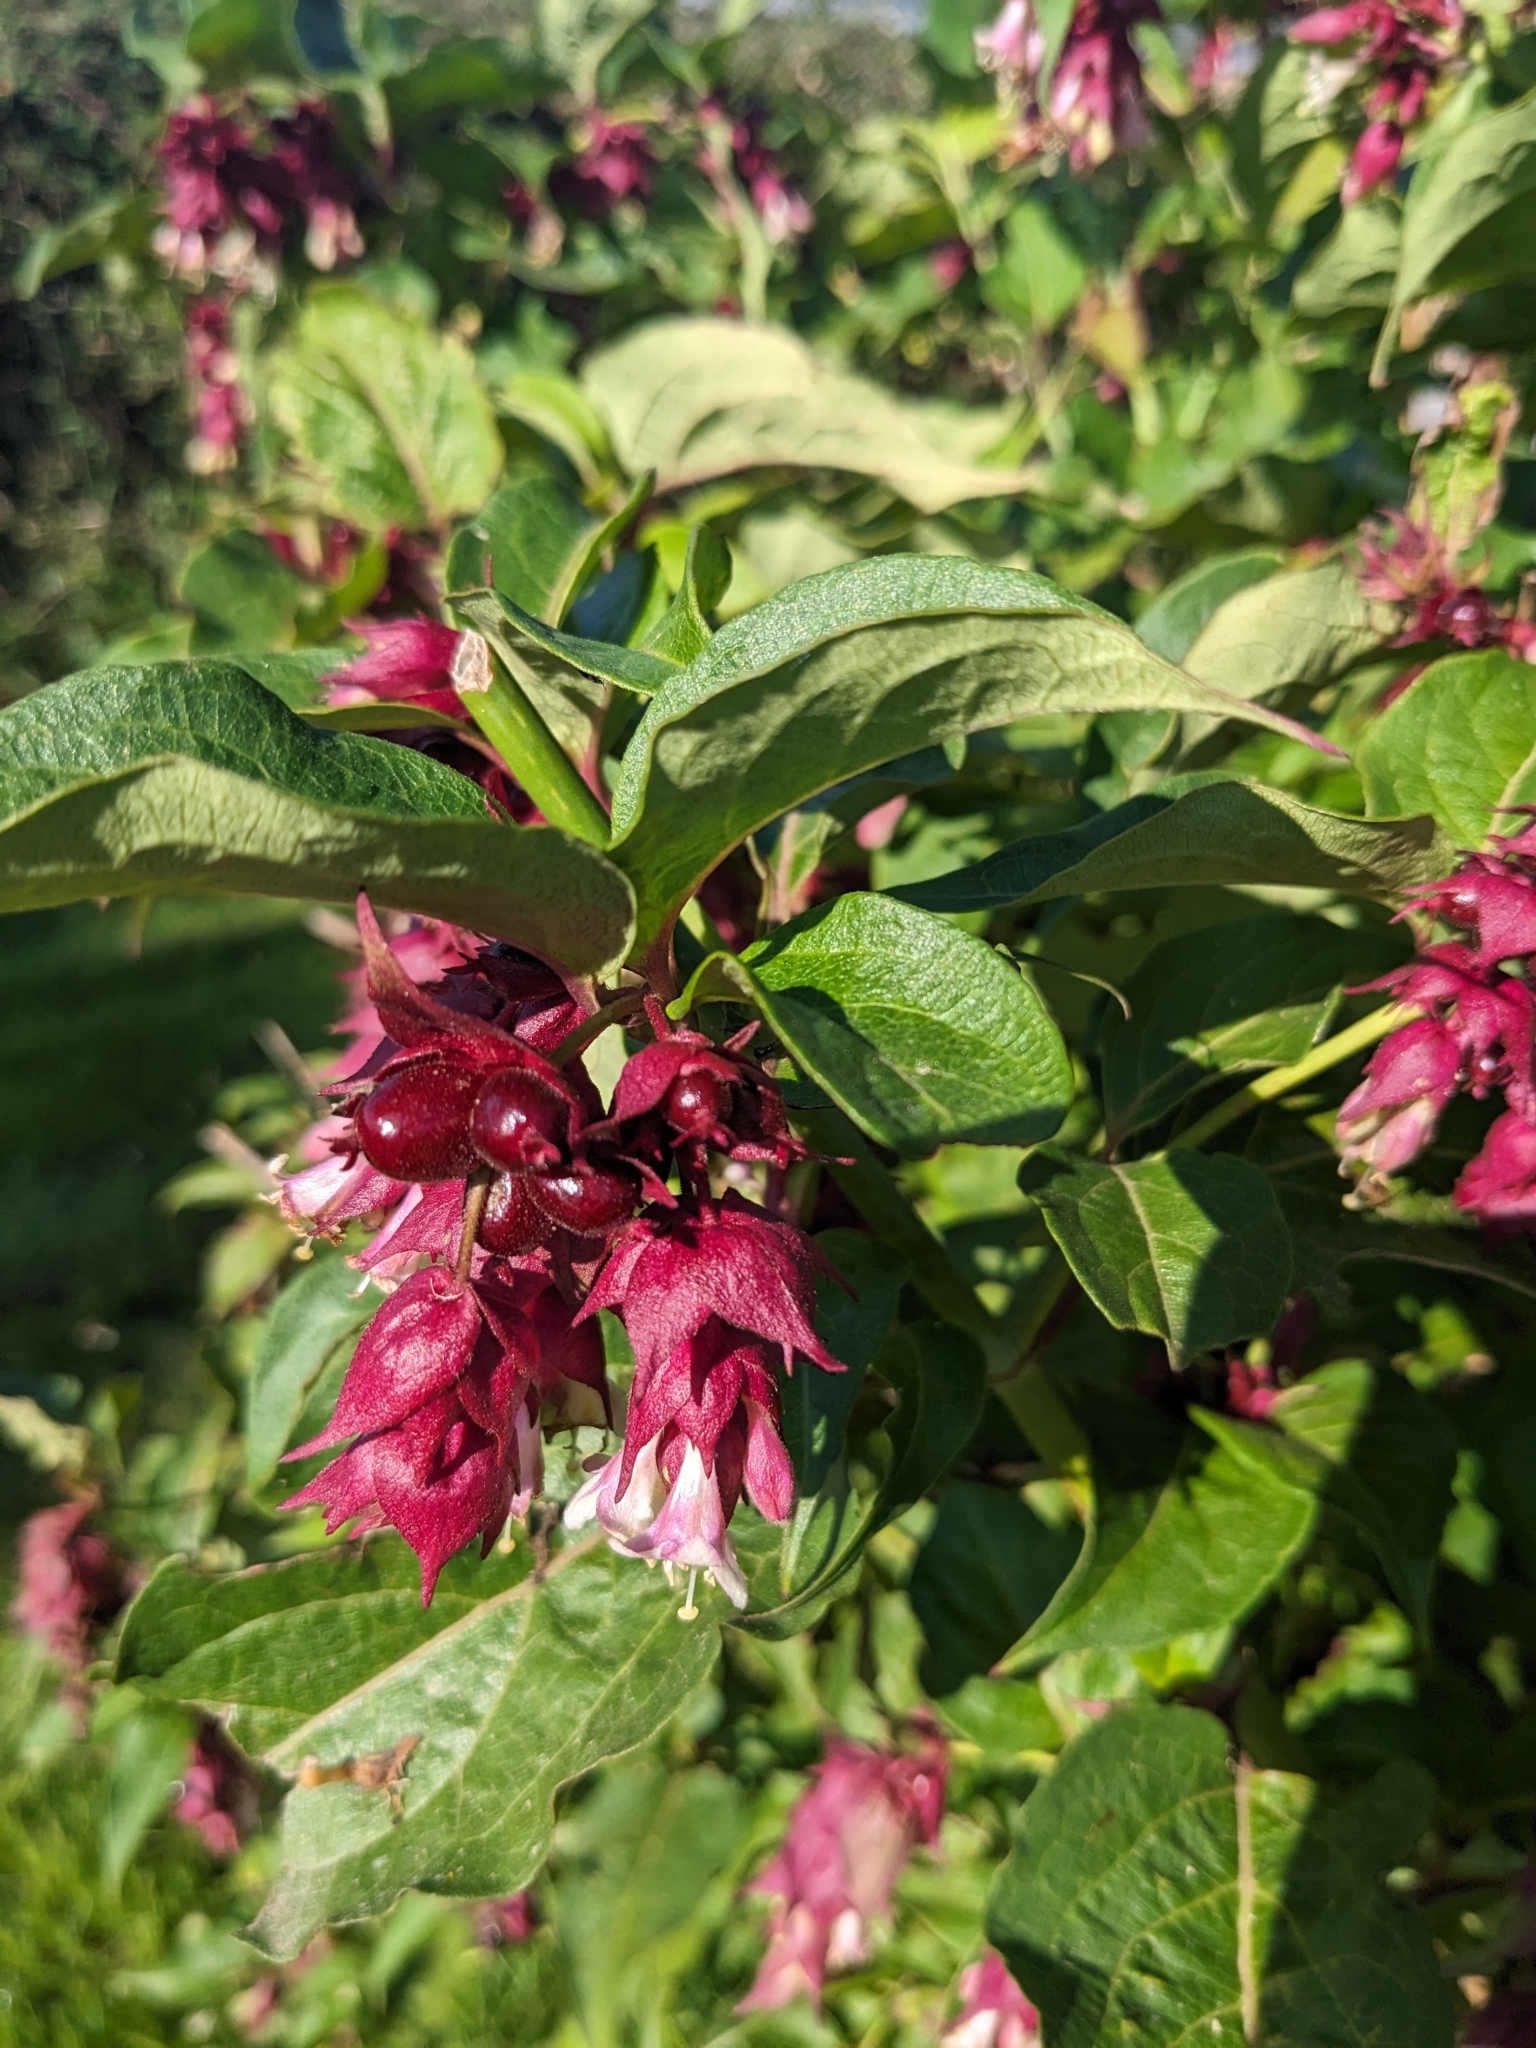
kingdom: Plantae
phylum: Tracheophyta
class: Magnoliopsida
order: Dipsacales
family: Caprifoliaceae
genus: Leycesteria
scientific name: Leycesteria formosa
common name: Himalayan honeysuckle
